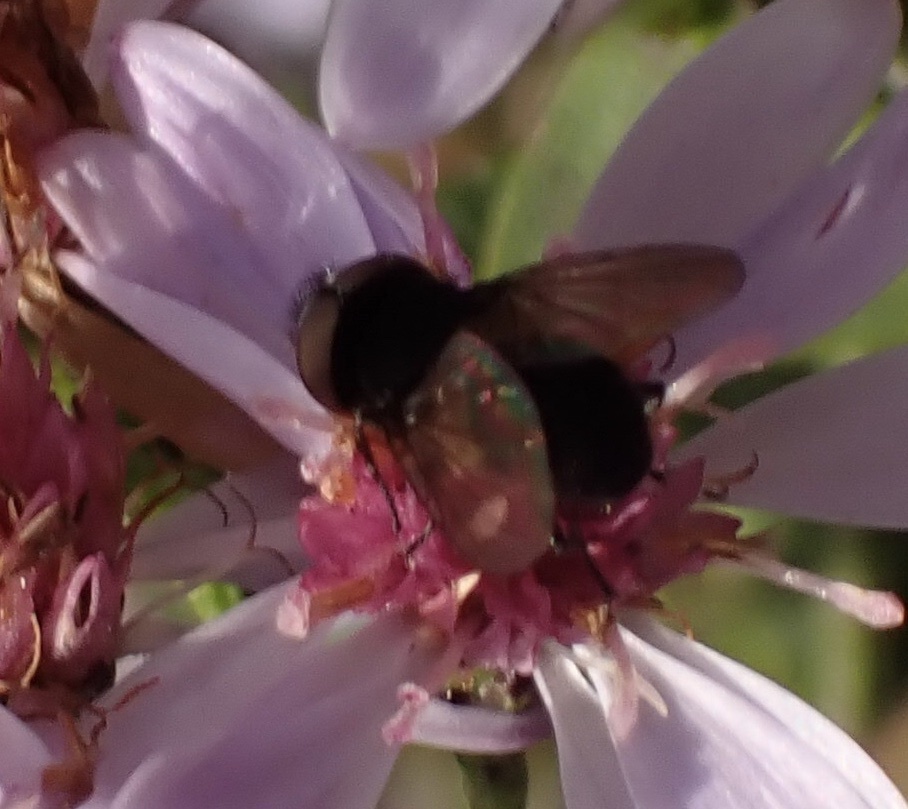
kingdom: Animalia
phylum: Arthropoda
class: Insecta
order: Diptera
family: Tachinidae
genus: Phasia
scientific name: Phasia barbifrons
